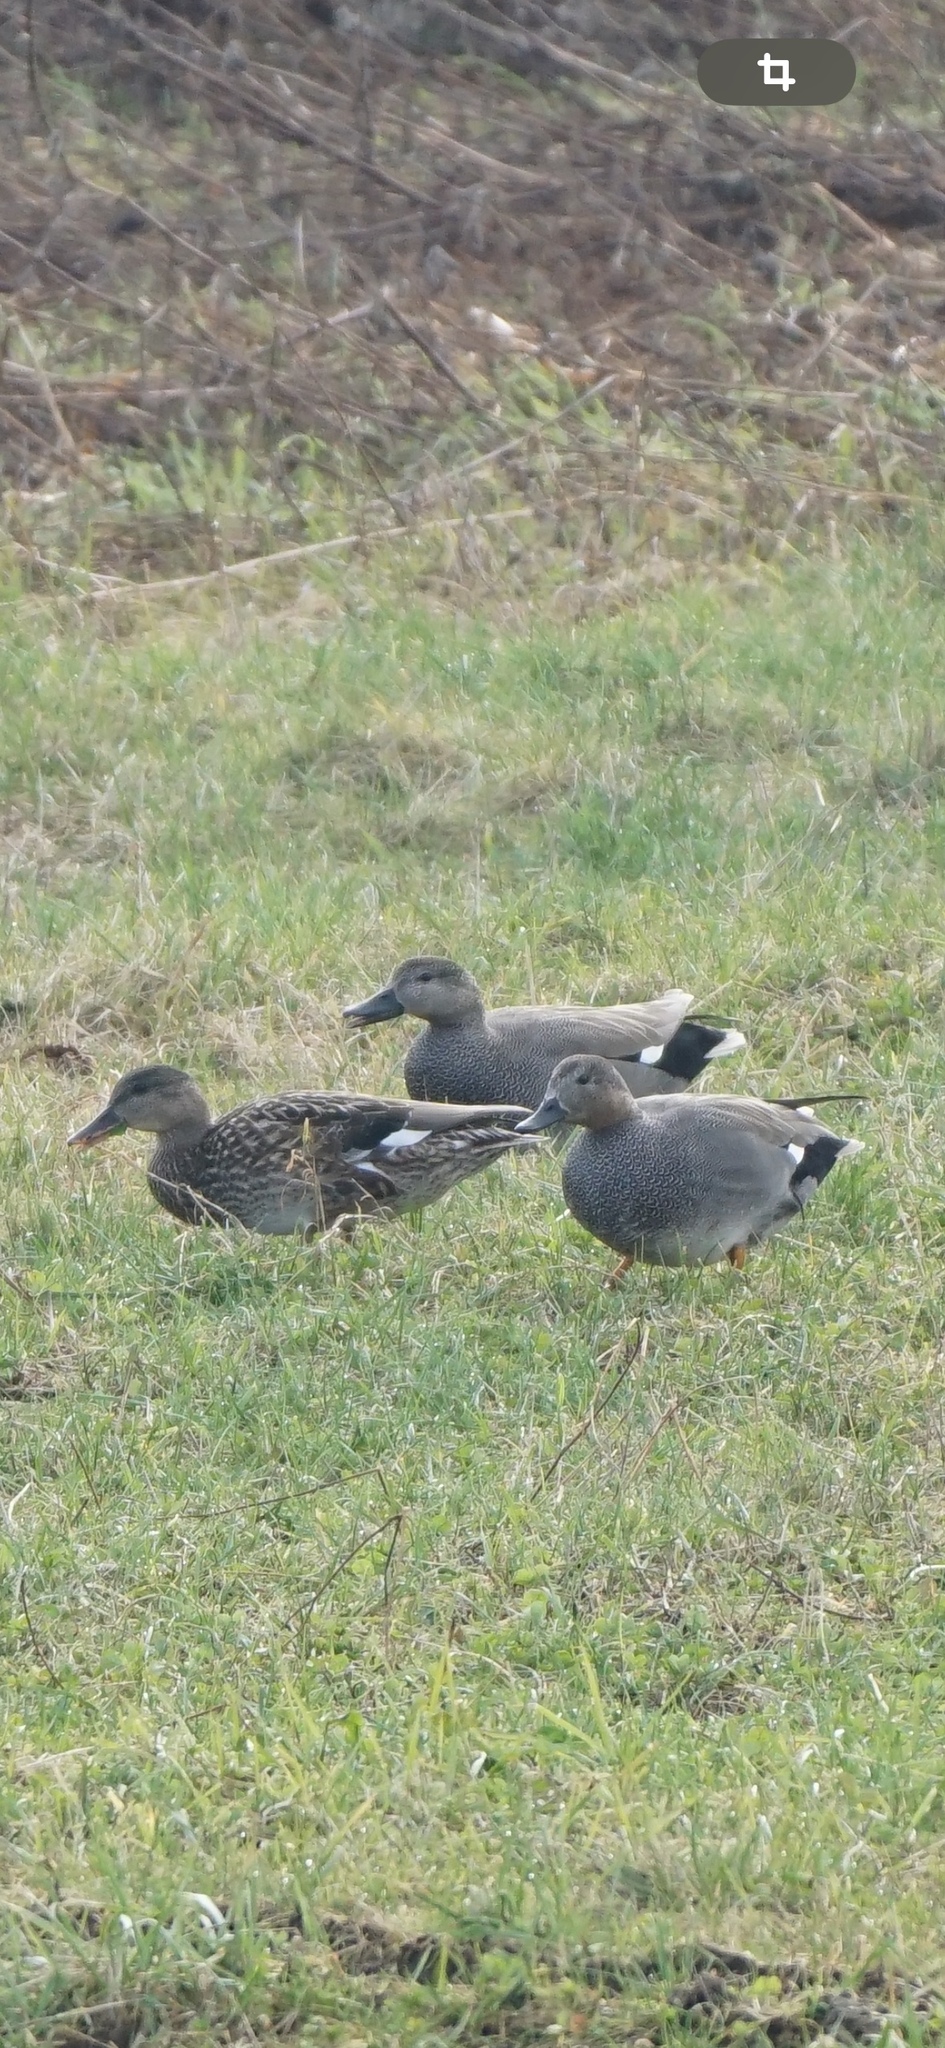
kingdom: Animalia
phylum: Chordata
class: Aves
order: Anseriformes
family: Anatidae
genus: Mareca
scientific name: Mareca strepera
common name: Gadwall
